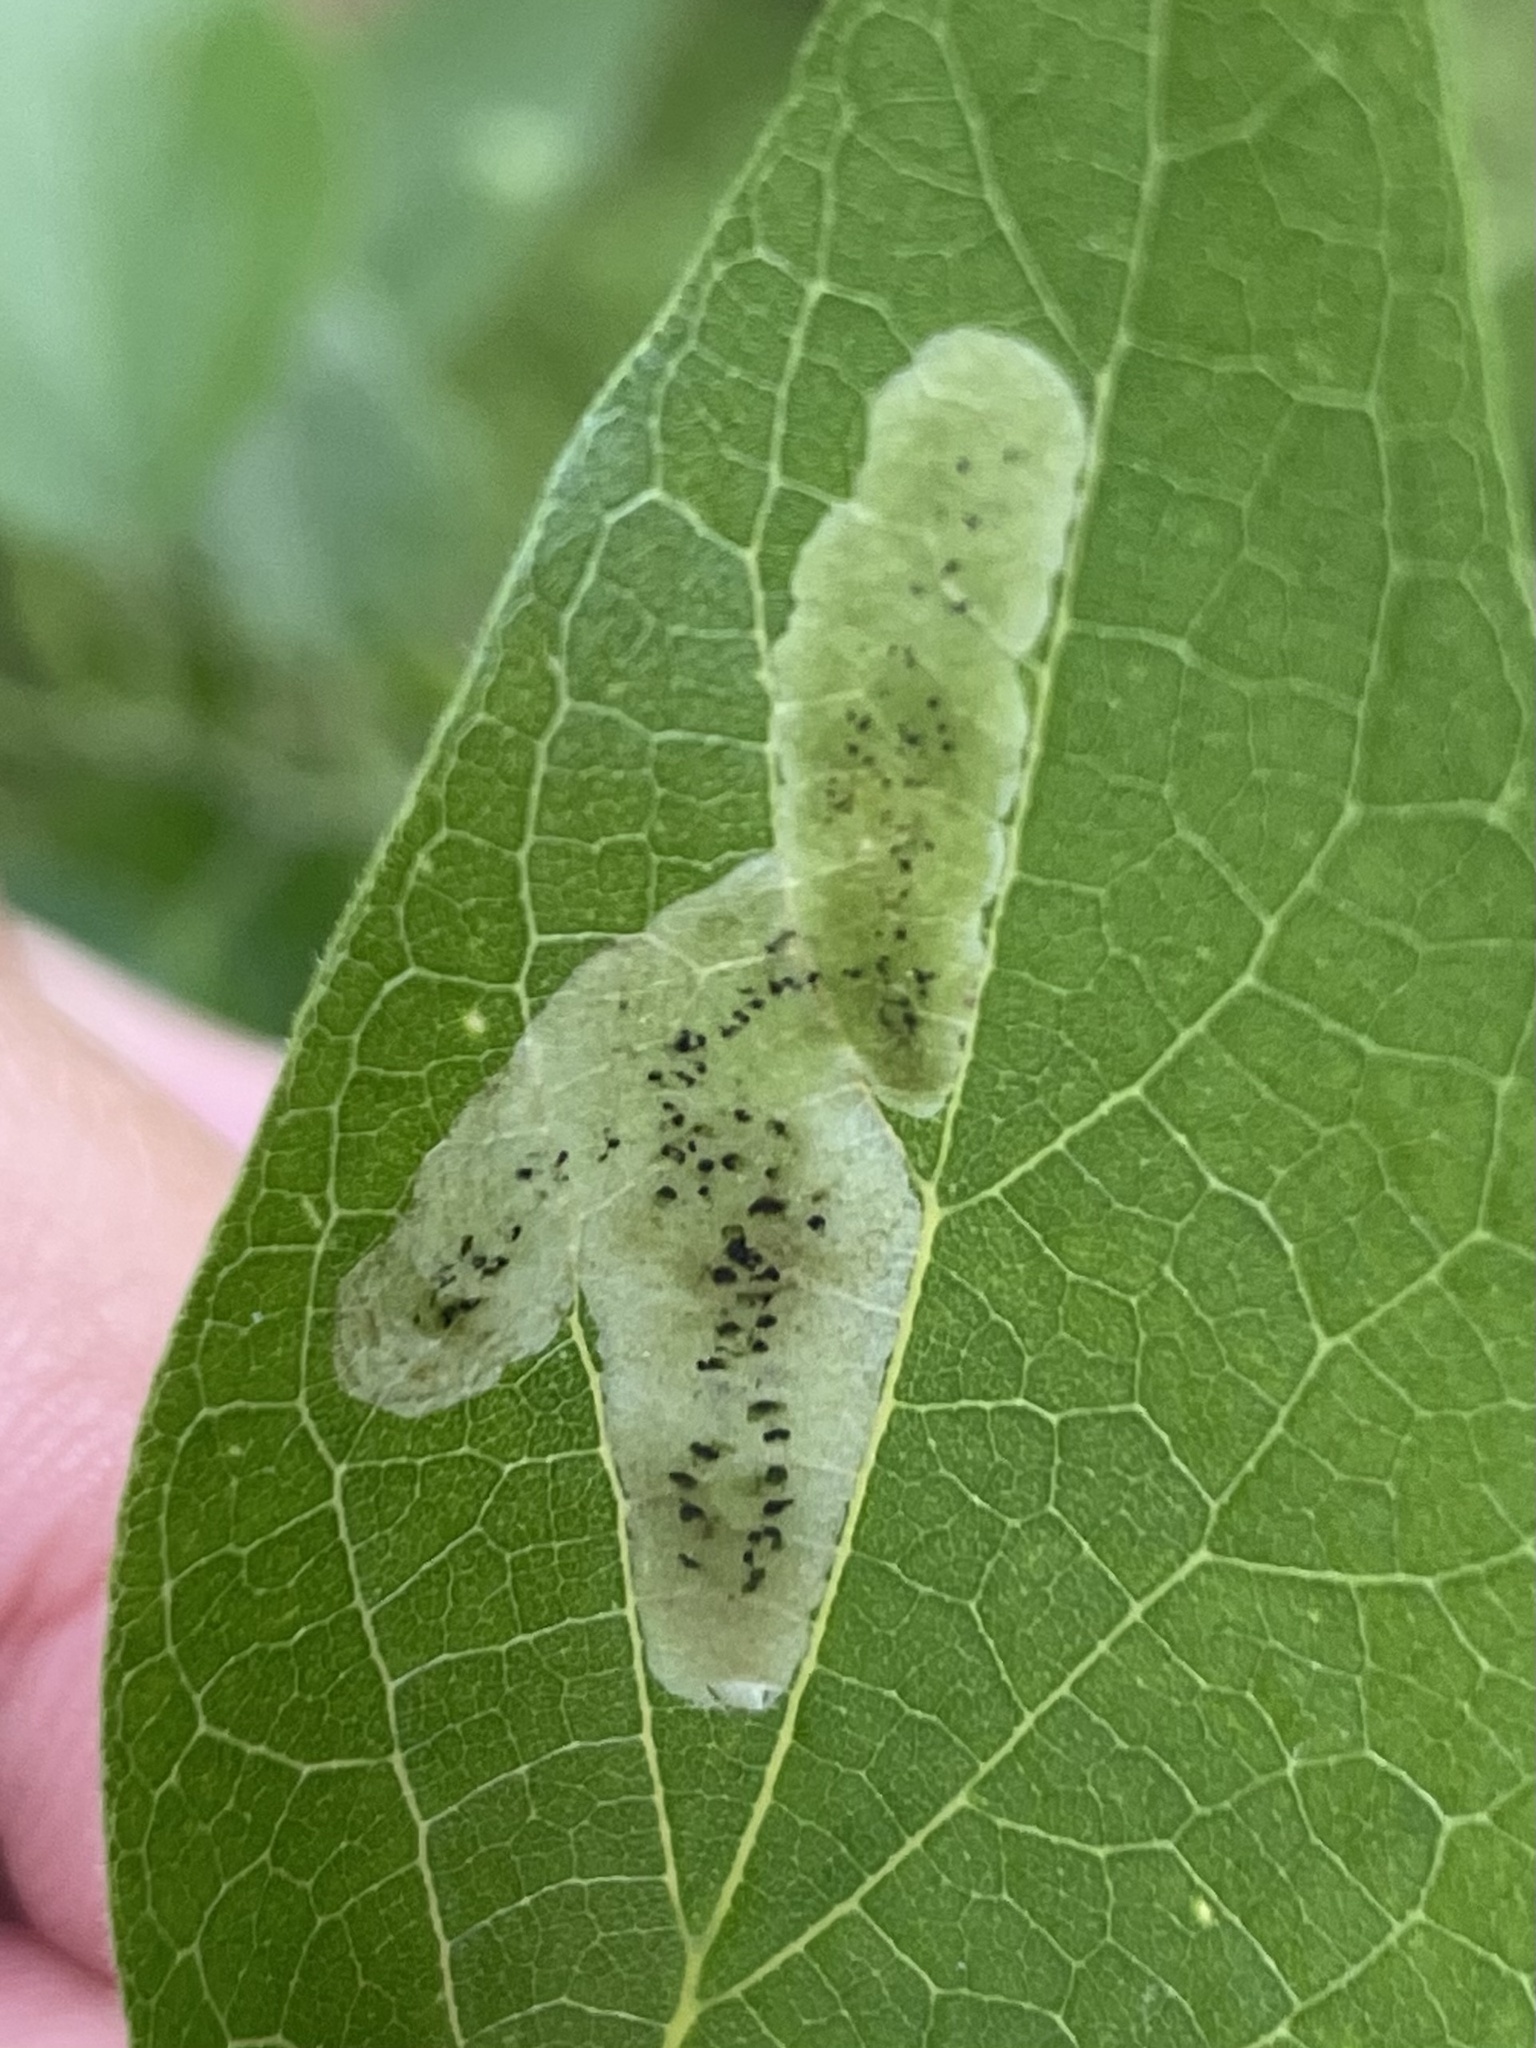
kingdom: Animalia
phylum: Arthropoda
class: Insecta
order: Diptera
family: Agromyzidae
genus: Agromyza
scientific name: Agromyza pallidiseta
